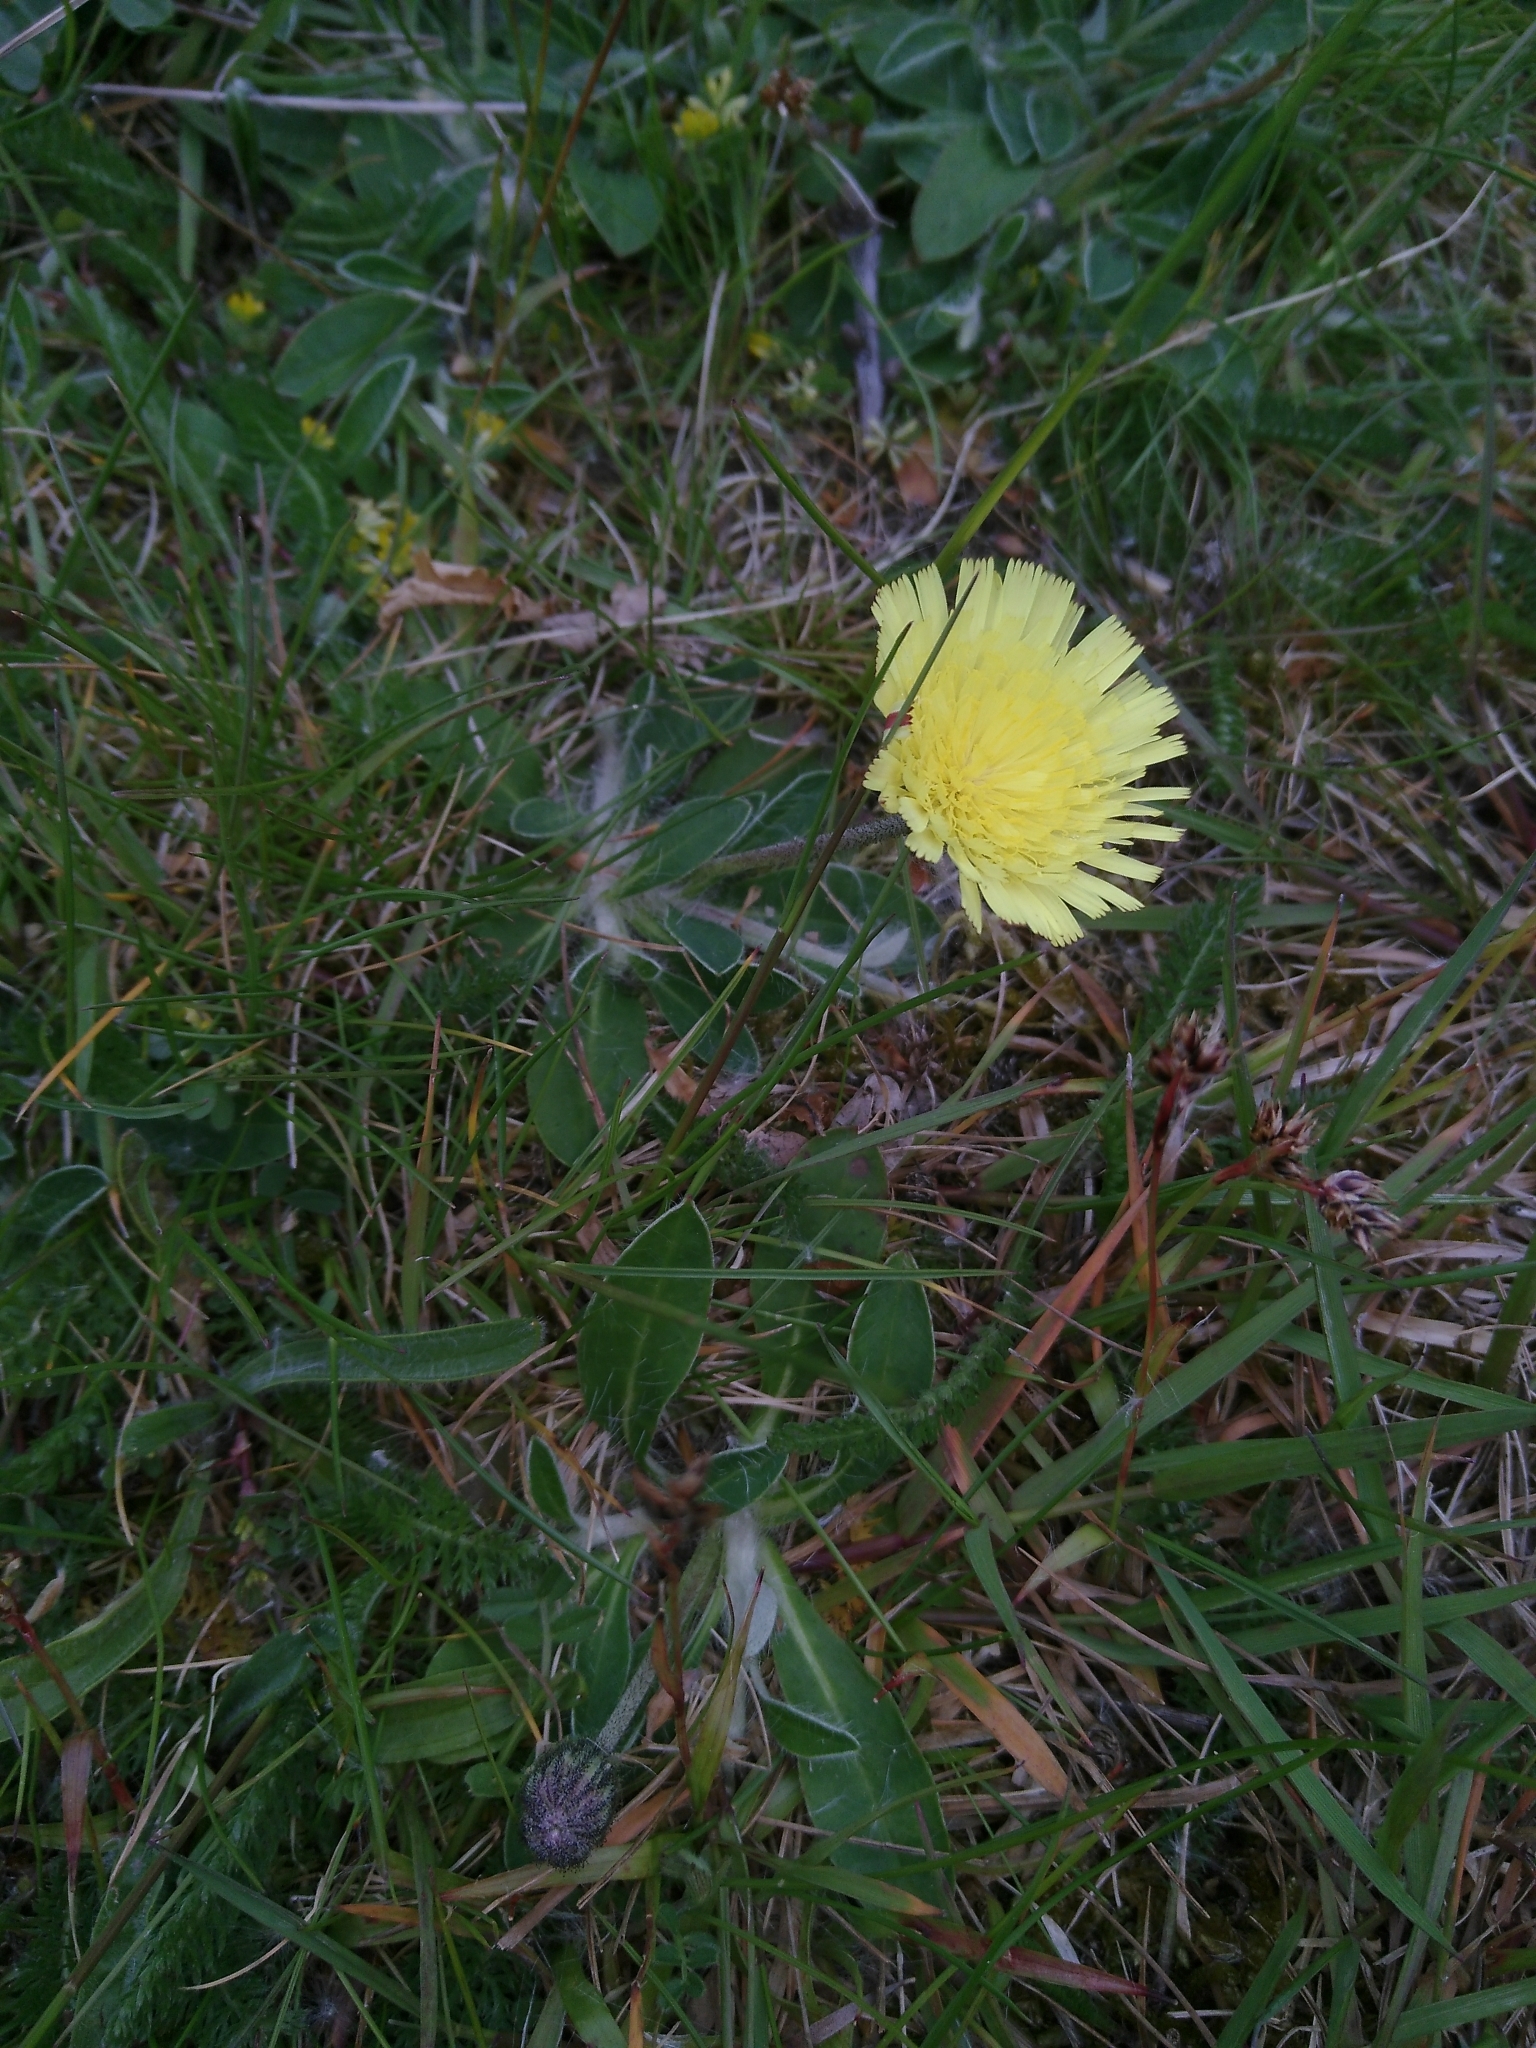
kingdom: Plantae
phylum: Tracheophyta
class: Magnoliopsida
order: Asterales
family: Asteraceae
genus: Pilosella
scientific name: Pilosella officinarum
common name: Mouse-ear hawkweed
